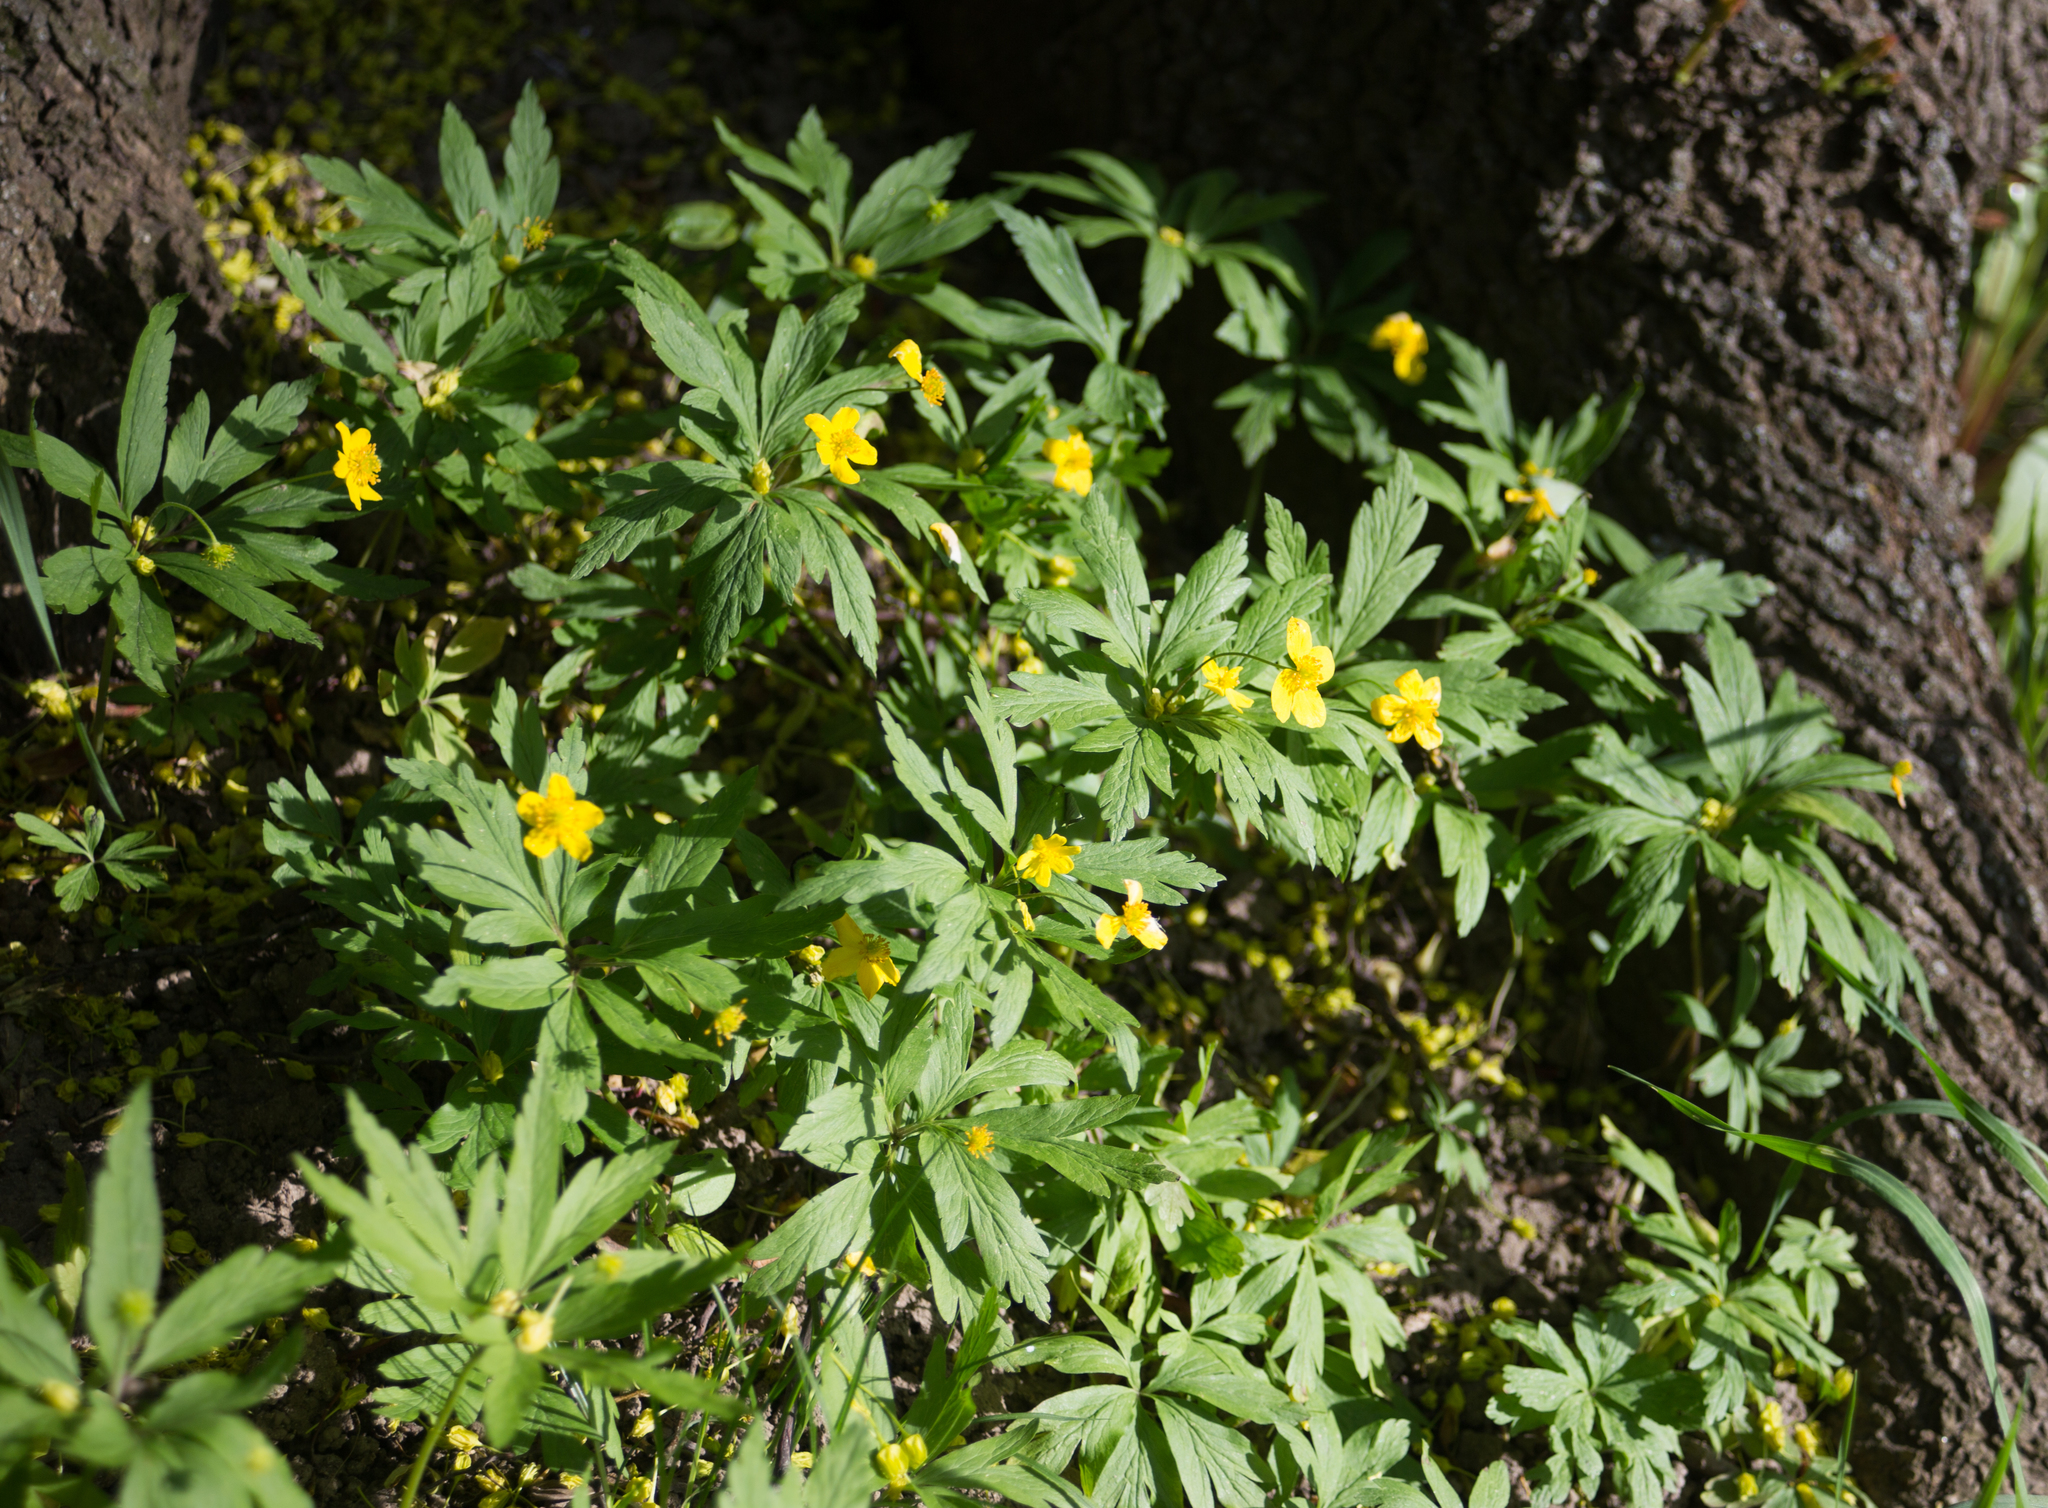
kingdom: Plantae
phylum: Tracheophyta
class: Magnoliopsida
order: Ranunculales
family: Ranunculaceae
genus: Anemone
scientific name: Anemone ranunculoides
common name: Yellow anemone
